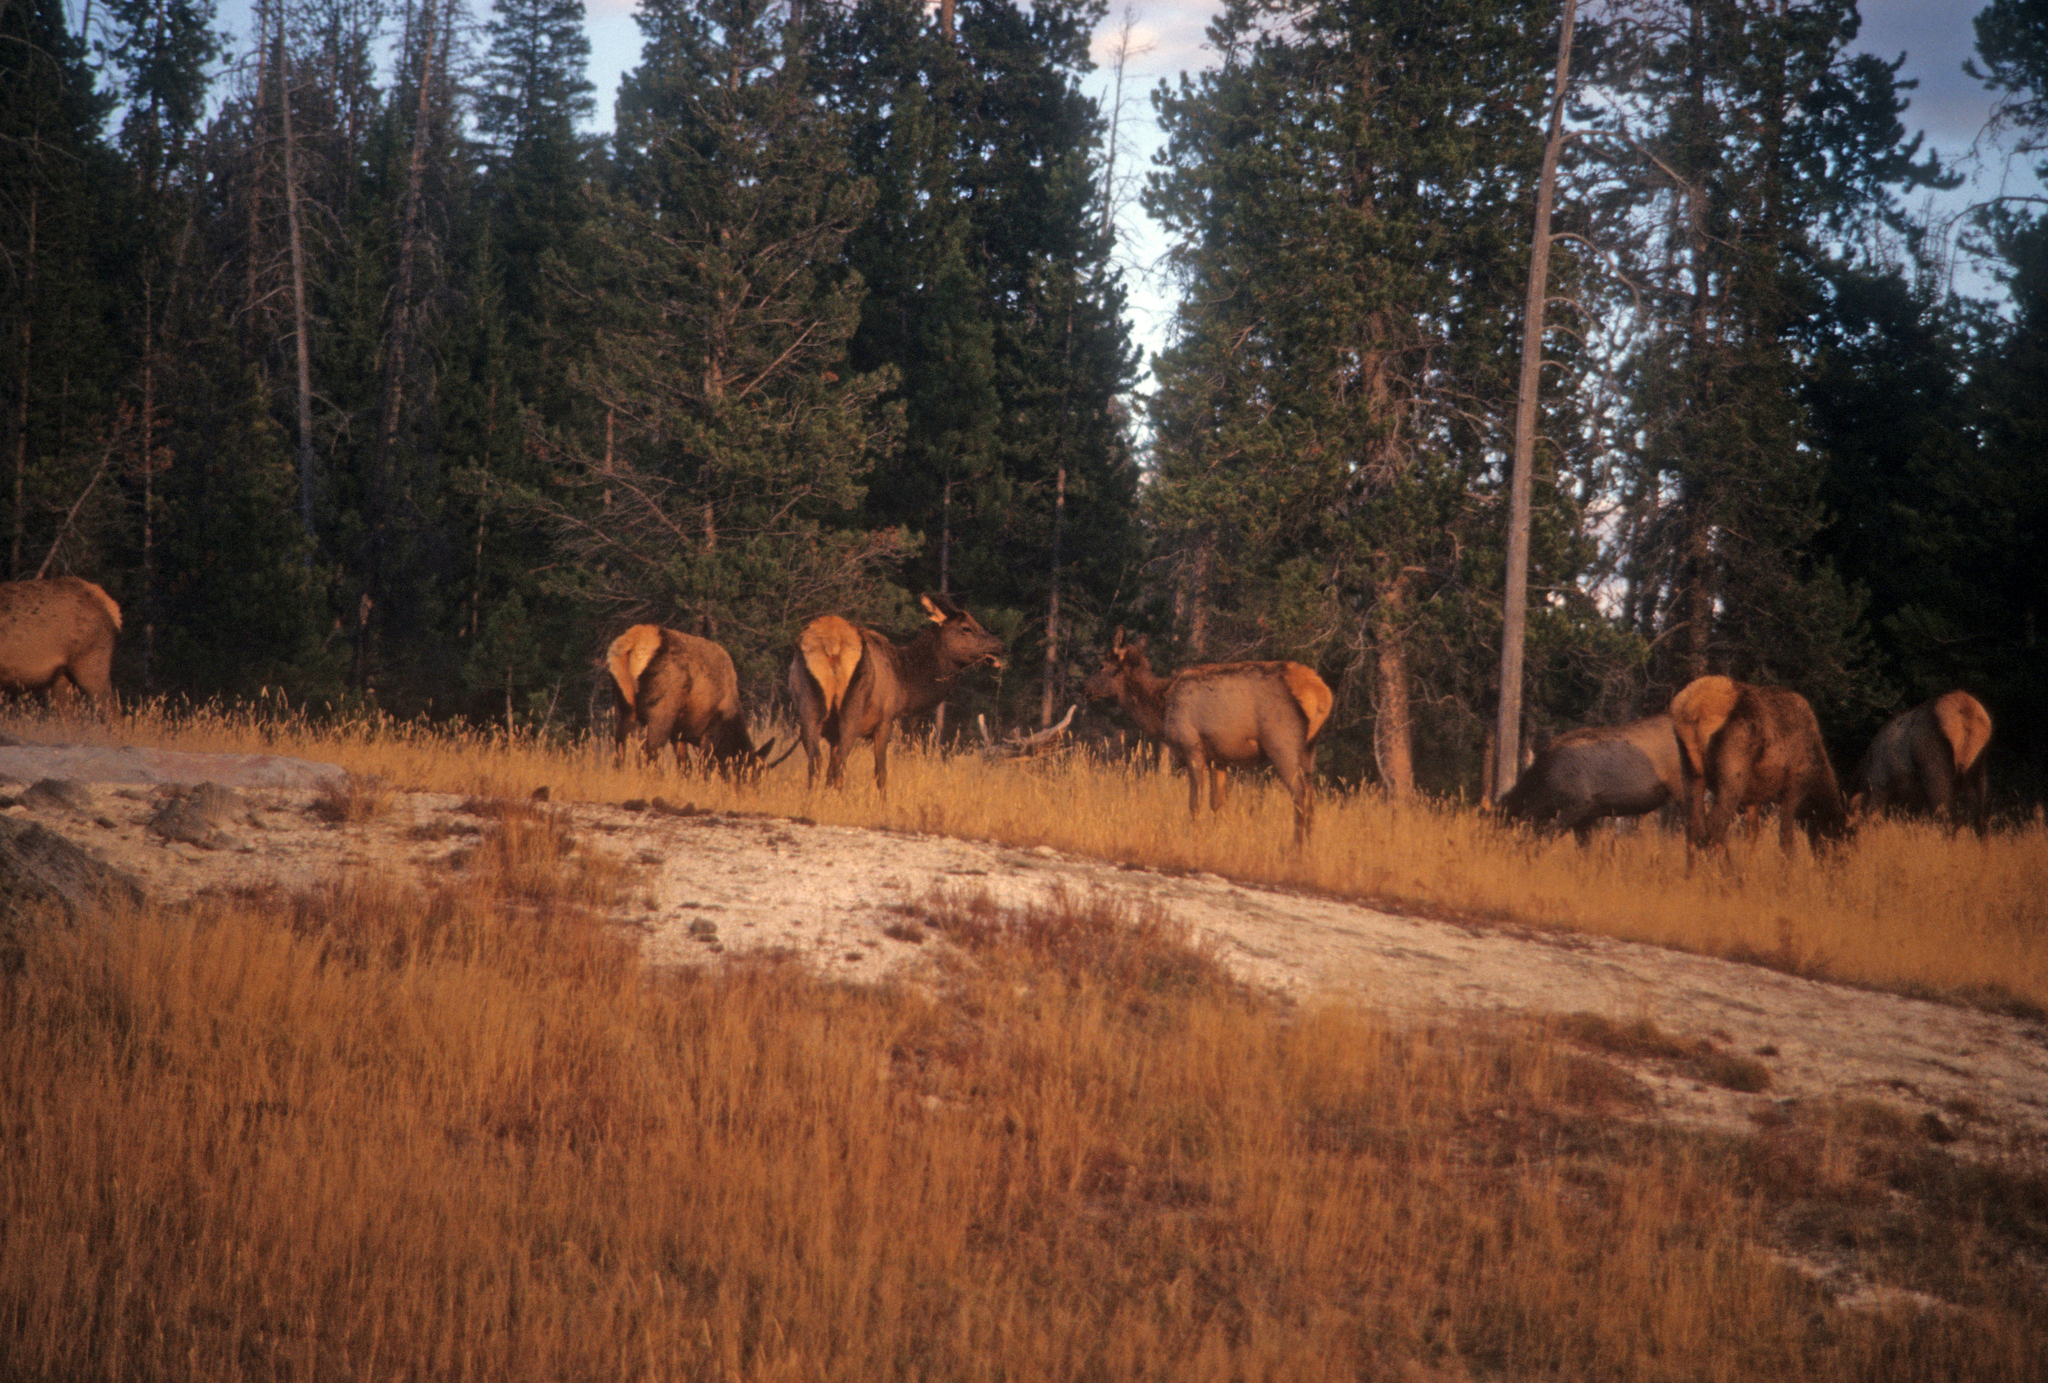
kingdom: Animalia
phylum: Chordata
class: Mammalia
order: Artiodactyla
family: Cervidae
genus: Cervus
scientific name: Cervus elaphus
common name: Red deer
